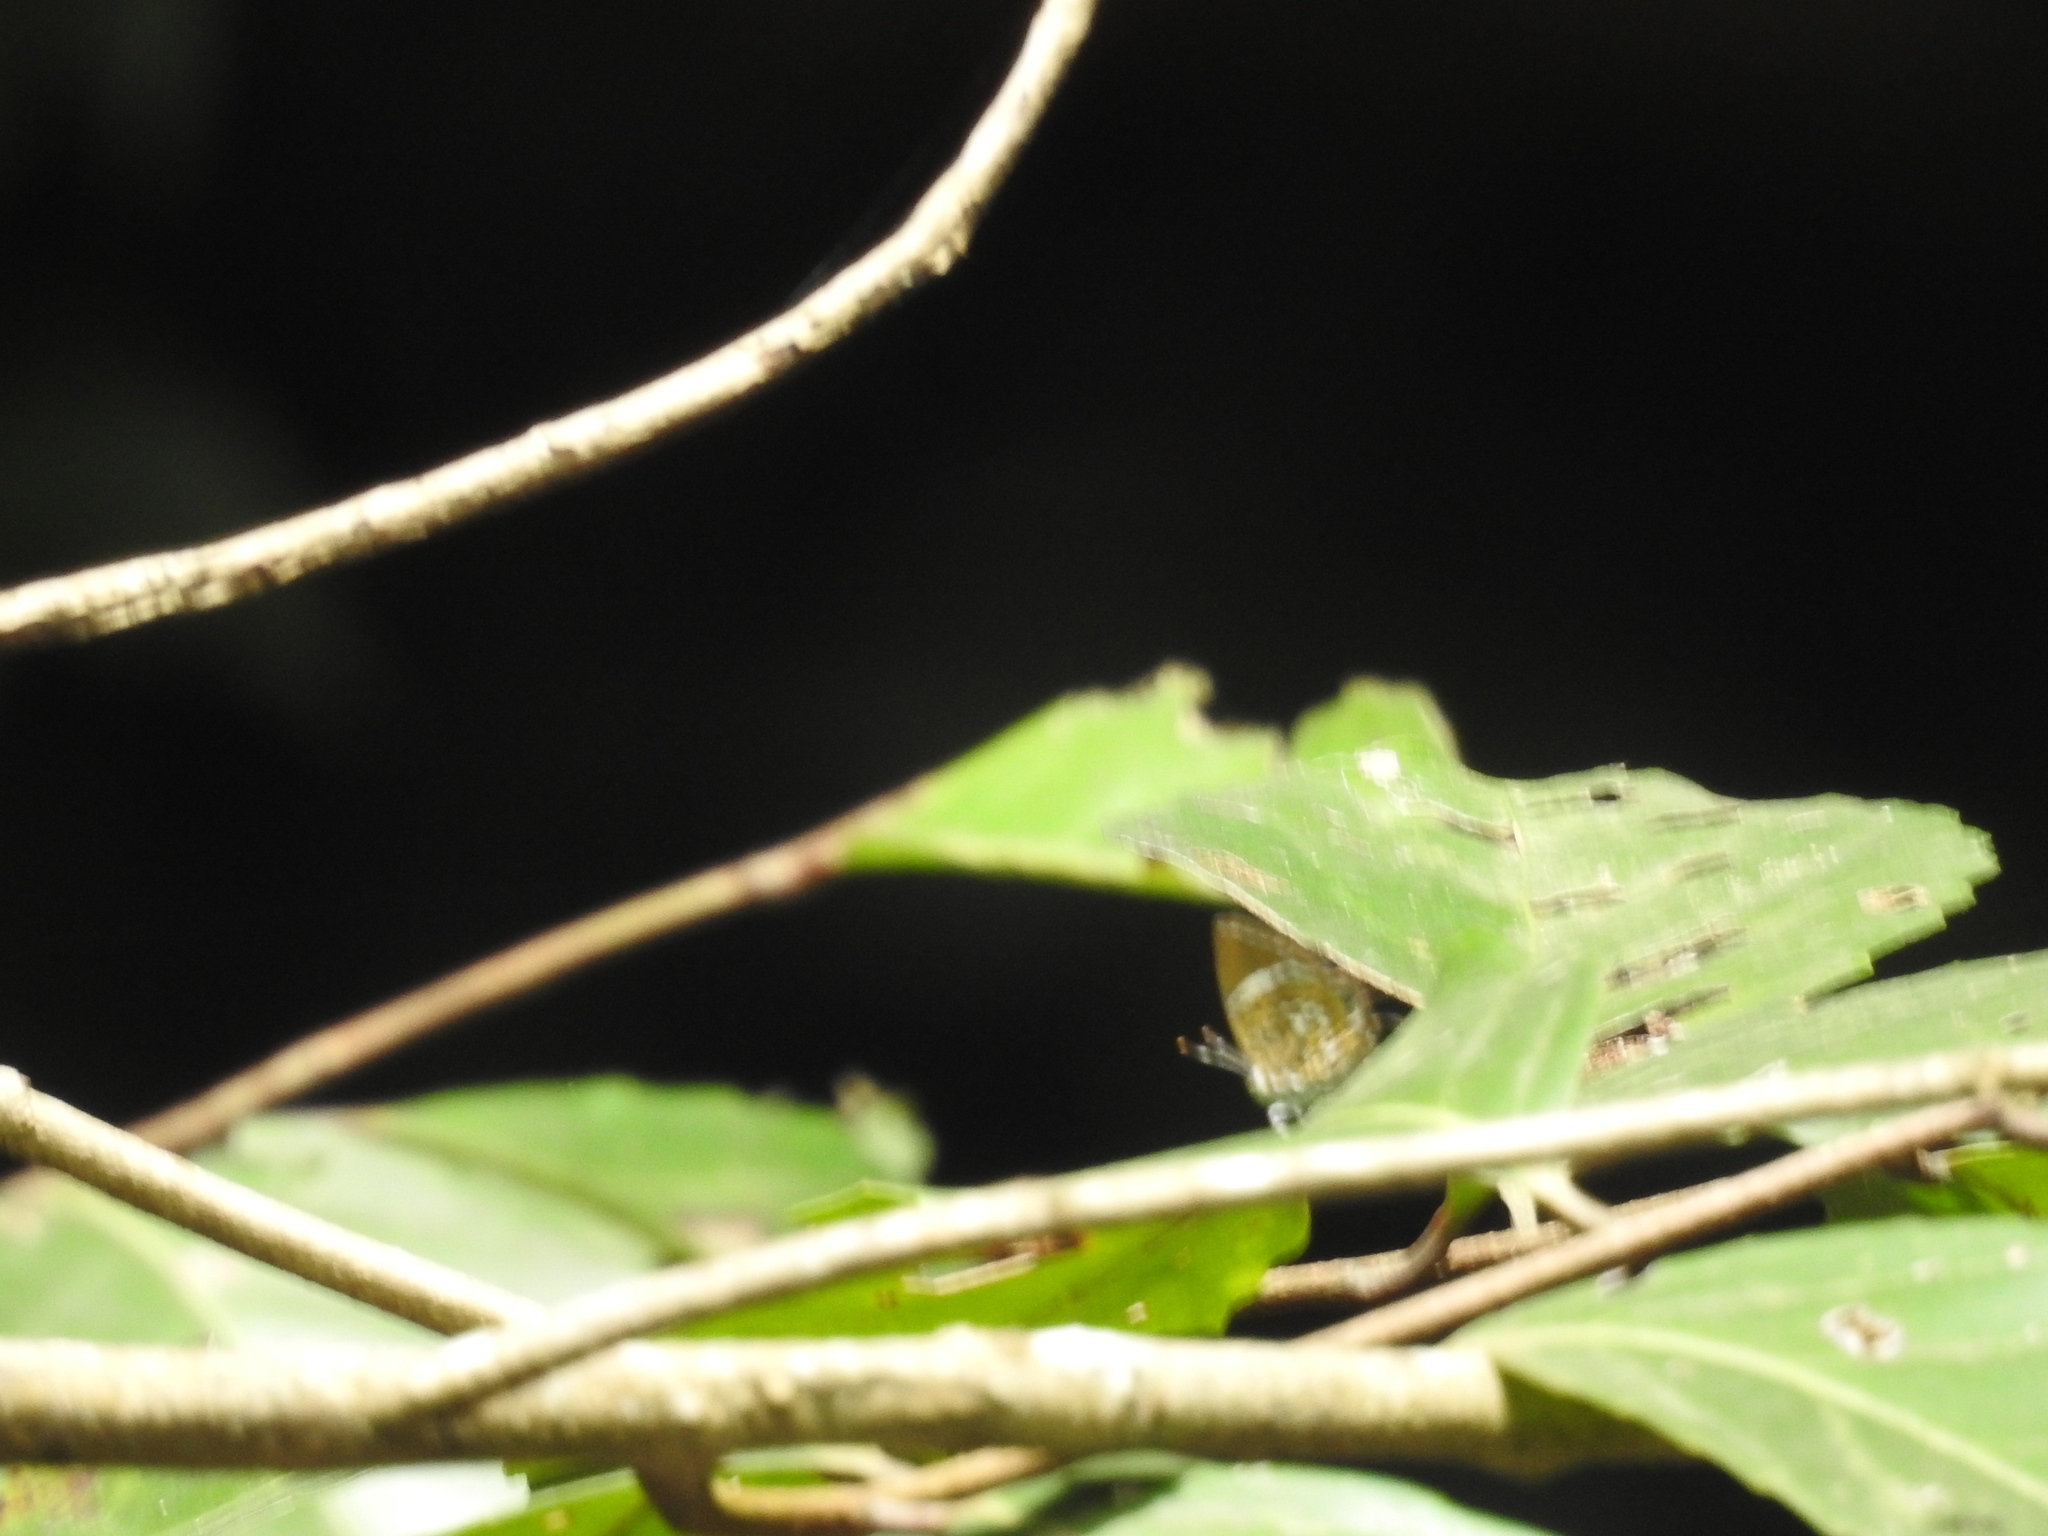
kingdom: Animalia
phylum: Arthropoda
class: Insecta
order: Lepidoptera
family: Lycaenidae
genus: Rathinda
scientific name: Rathinda amor
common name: Monkey puzzle
